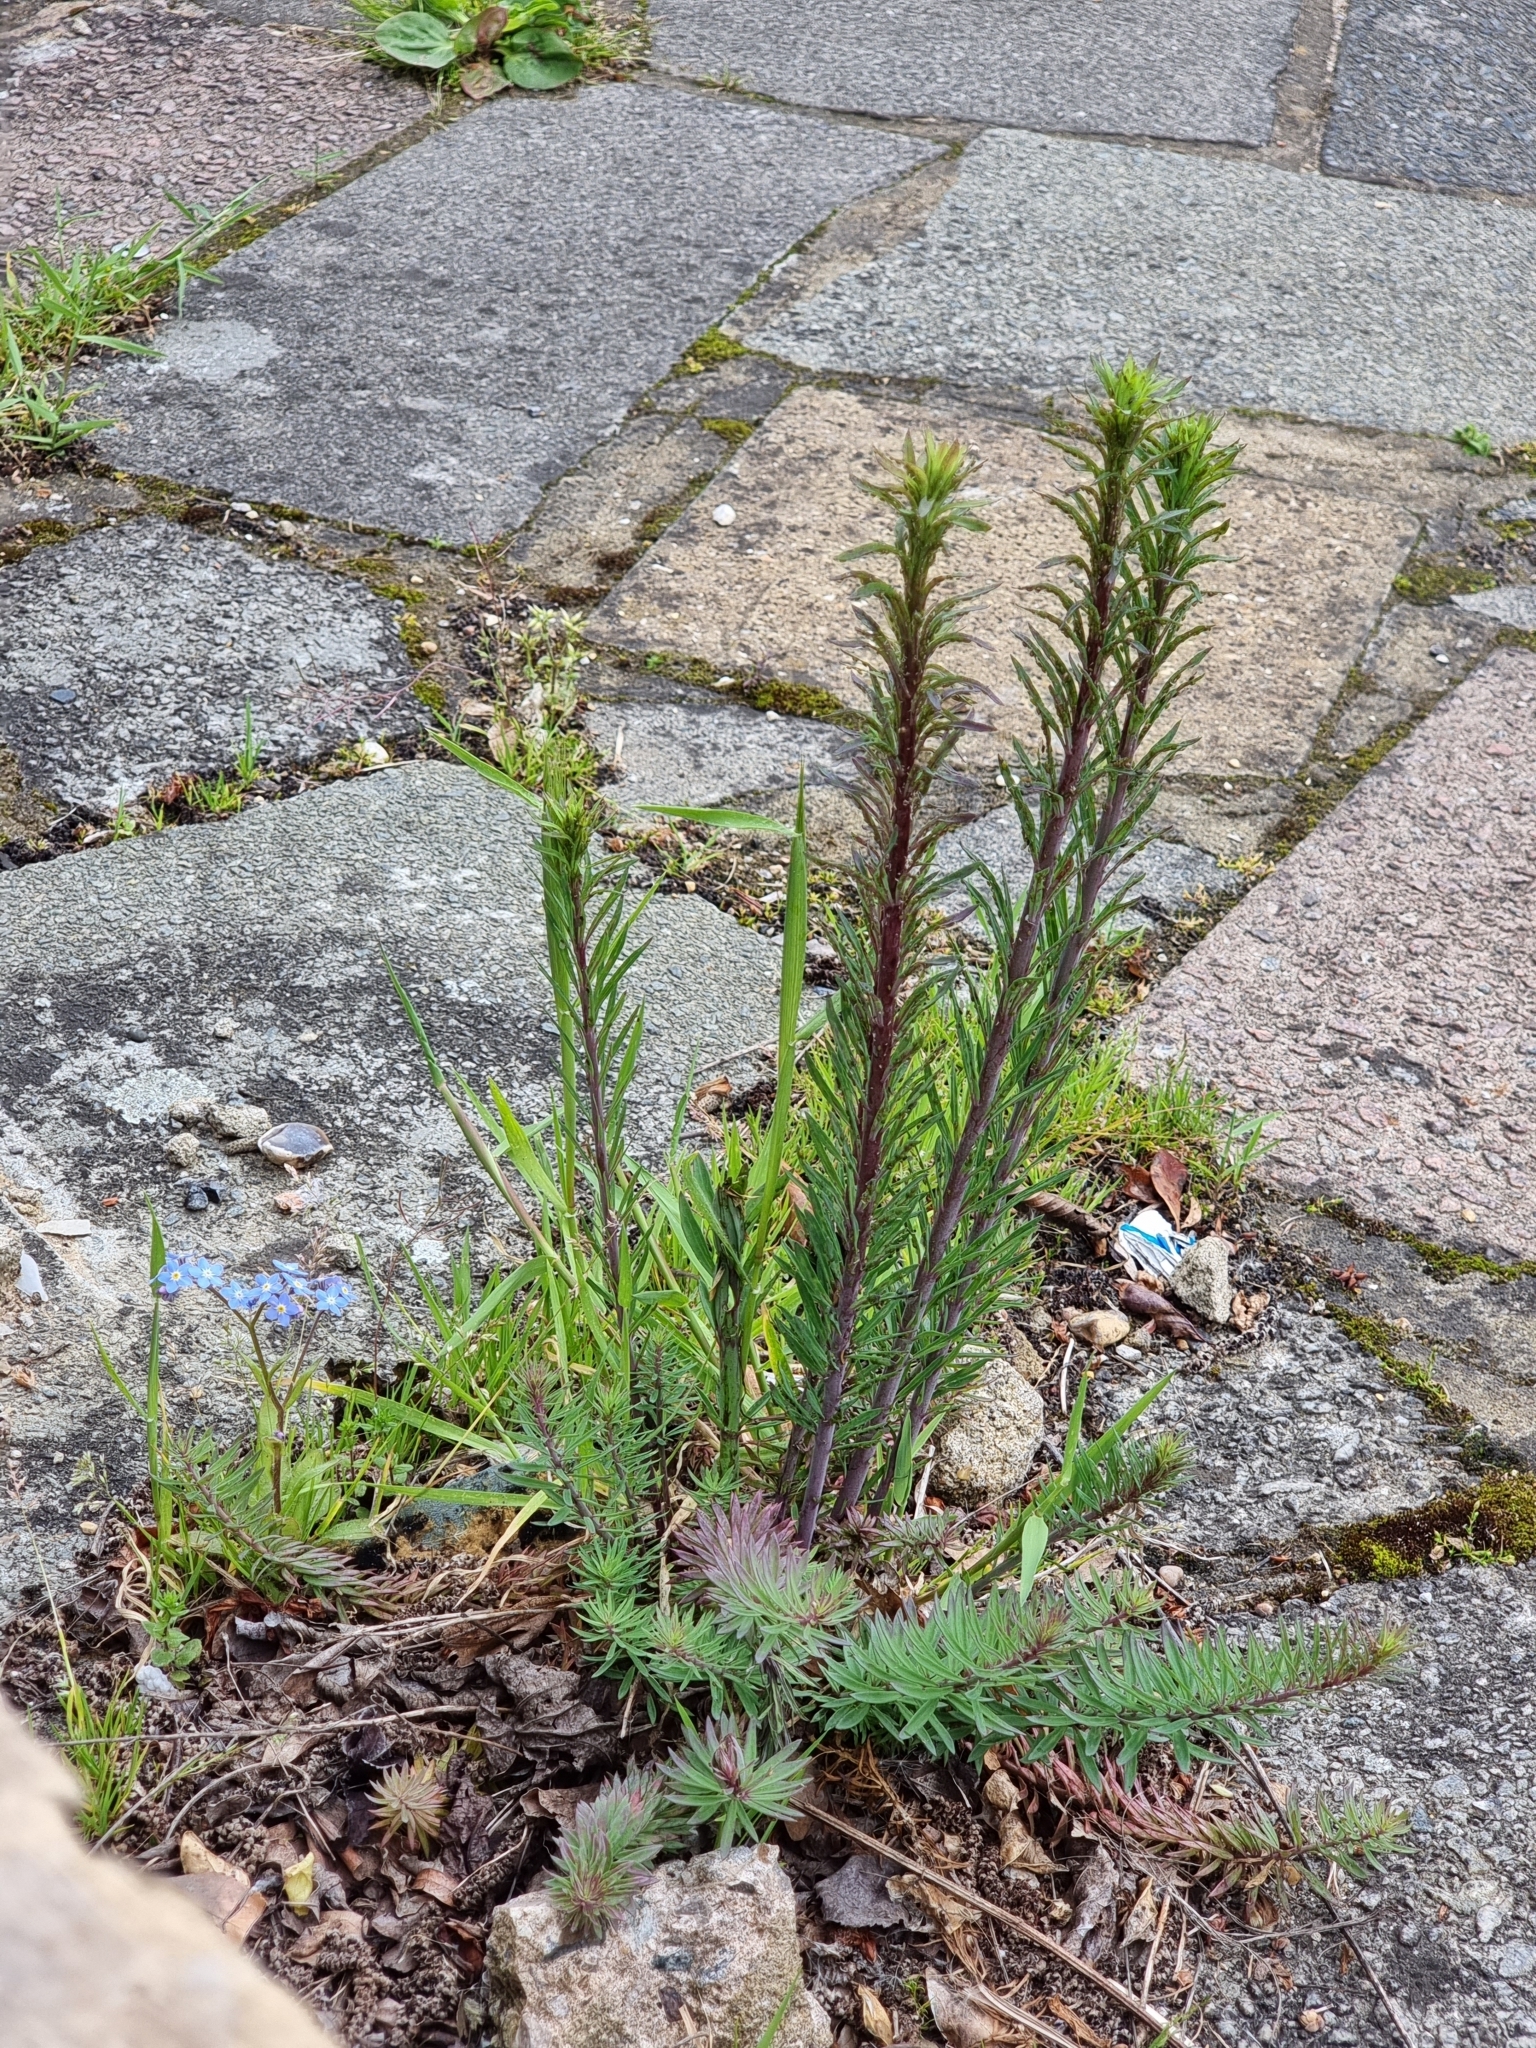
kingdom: Plantae
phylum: Tracheophyta
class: Magnoliopsida
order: Lamiales
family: Plantaginaceae
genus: Linaria
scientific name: Linaria purpurea
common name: Purple toadflax
